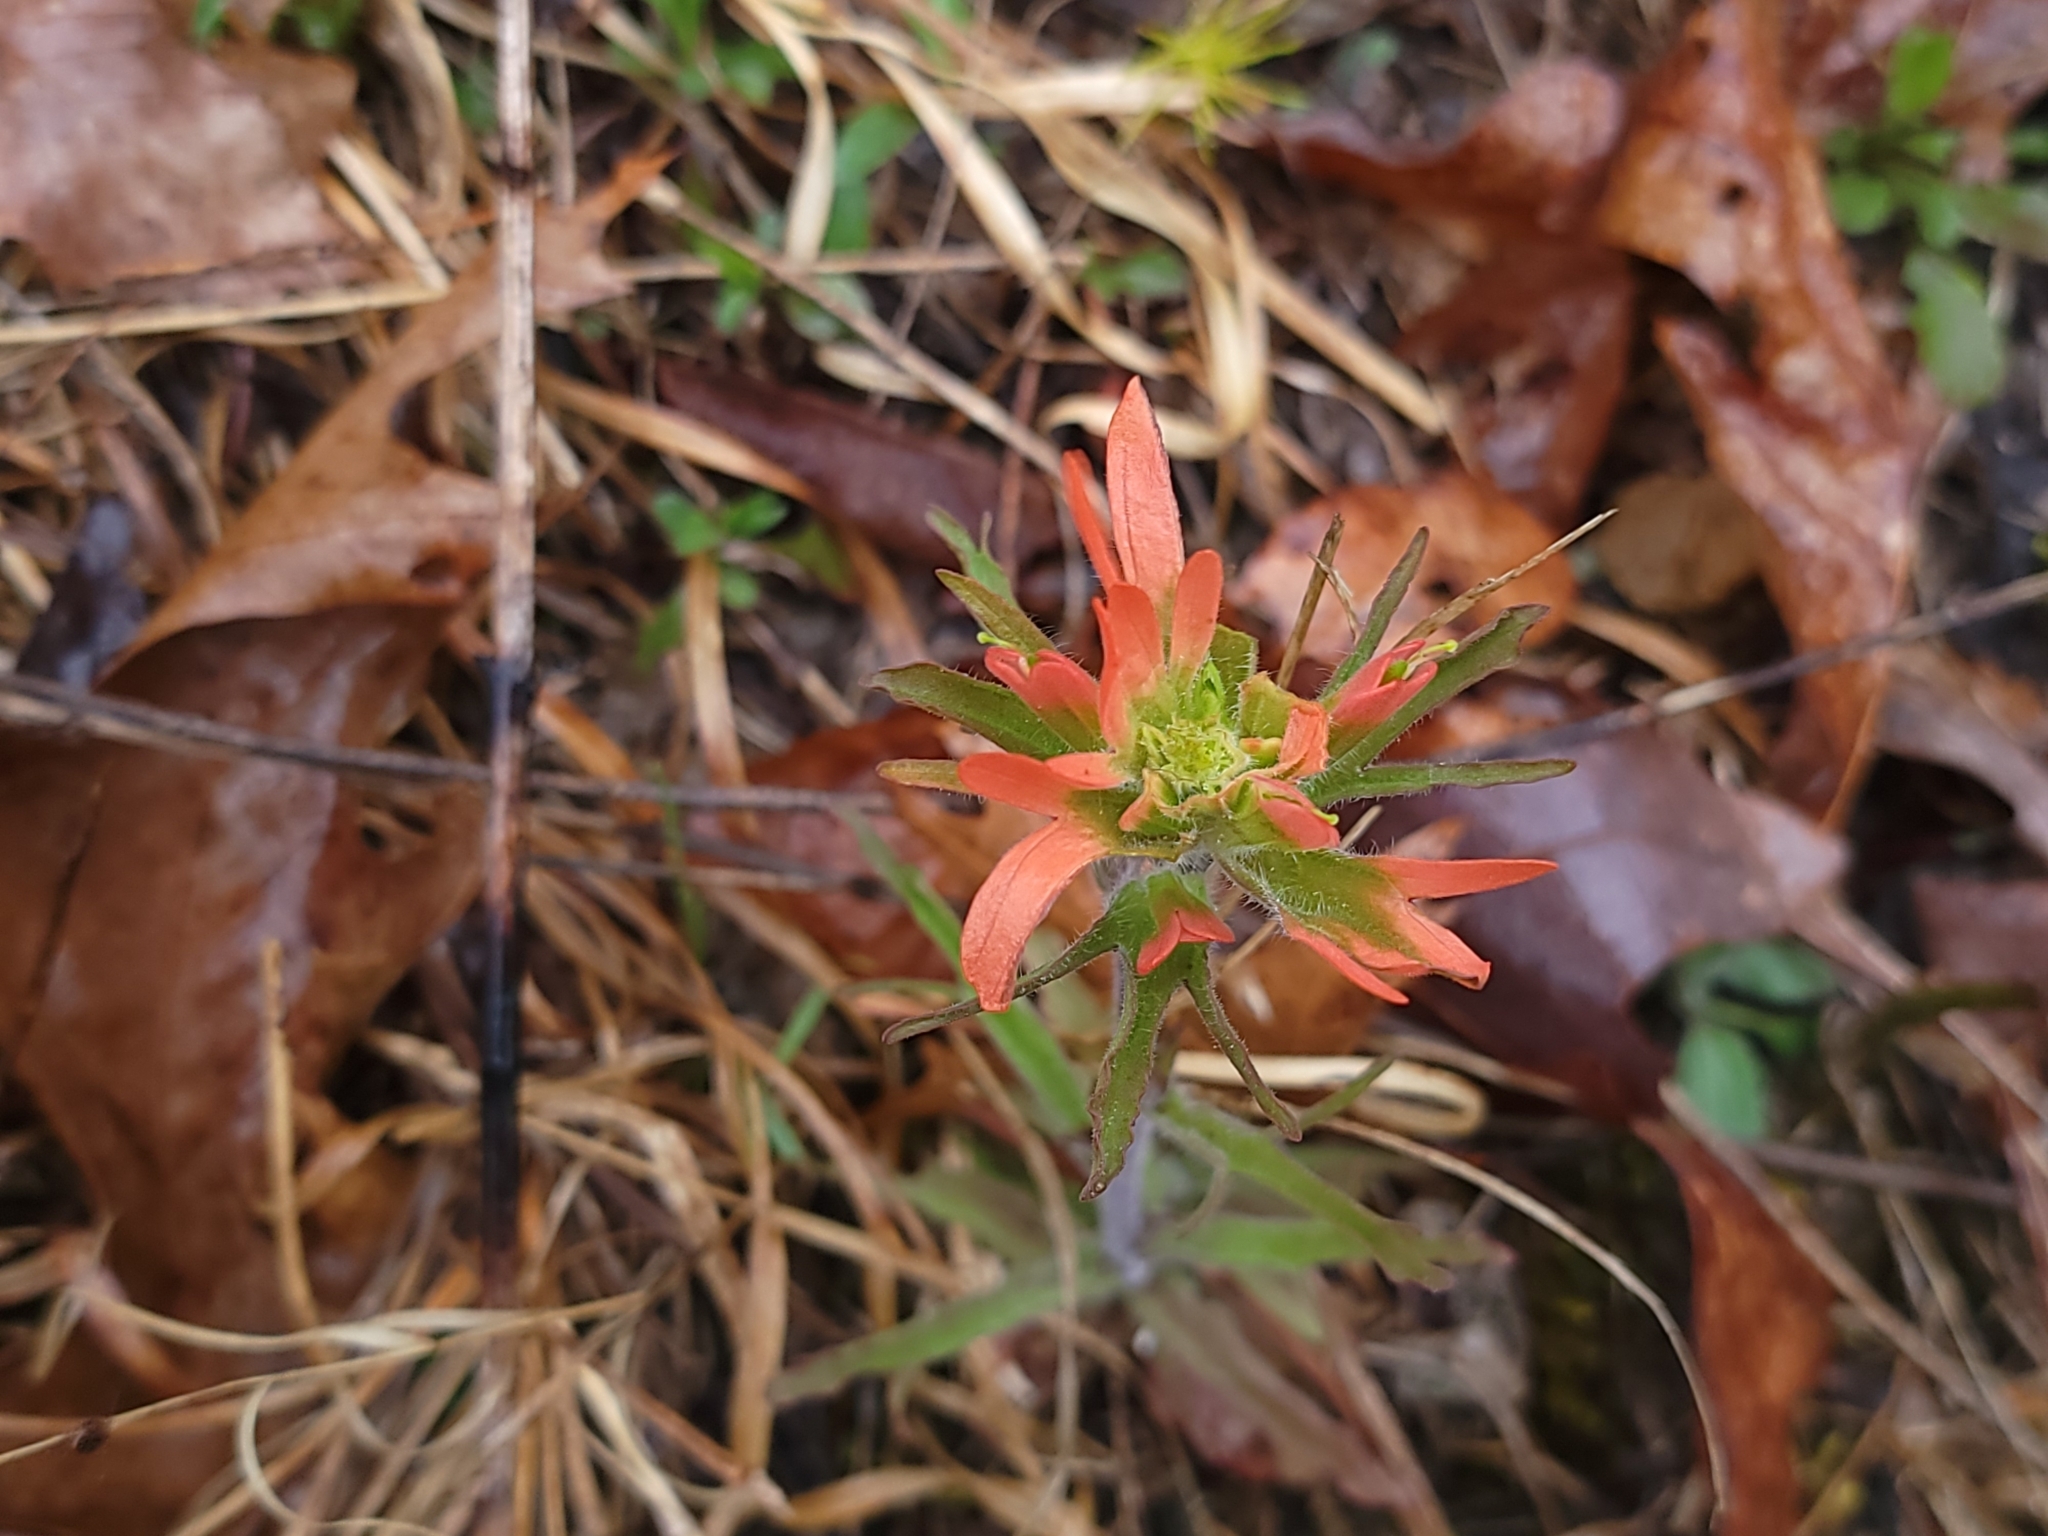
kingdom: Plantae
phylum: Tracheophyta
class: Magnoliopsida
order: Lamiales
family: Orobanchaceae
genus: Castilleja
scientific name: Castilleja coccinea
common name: Scarlet paintbrush
